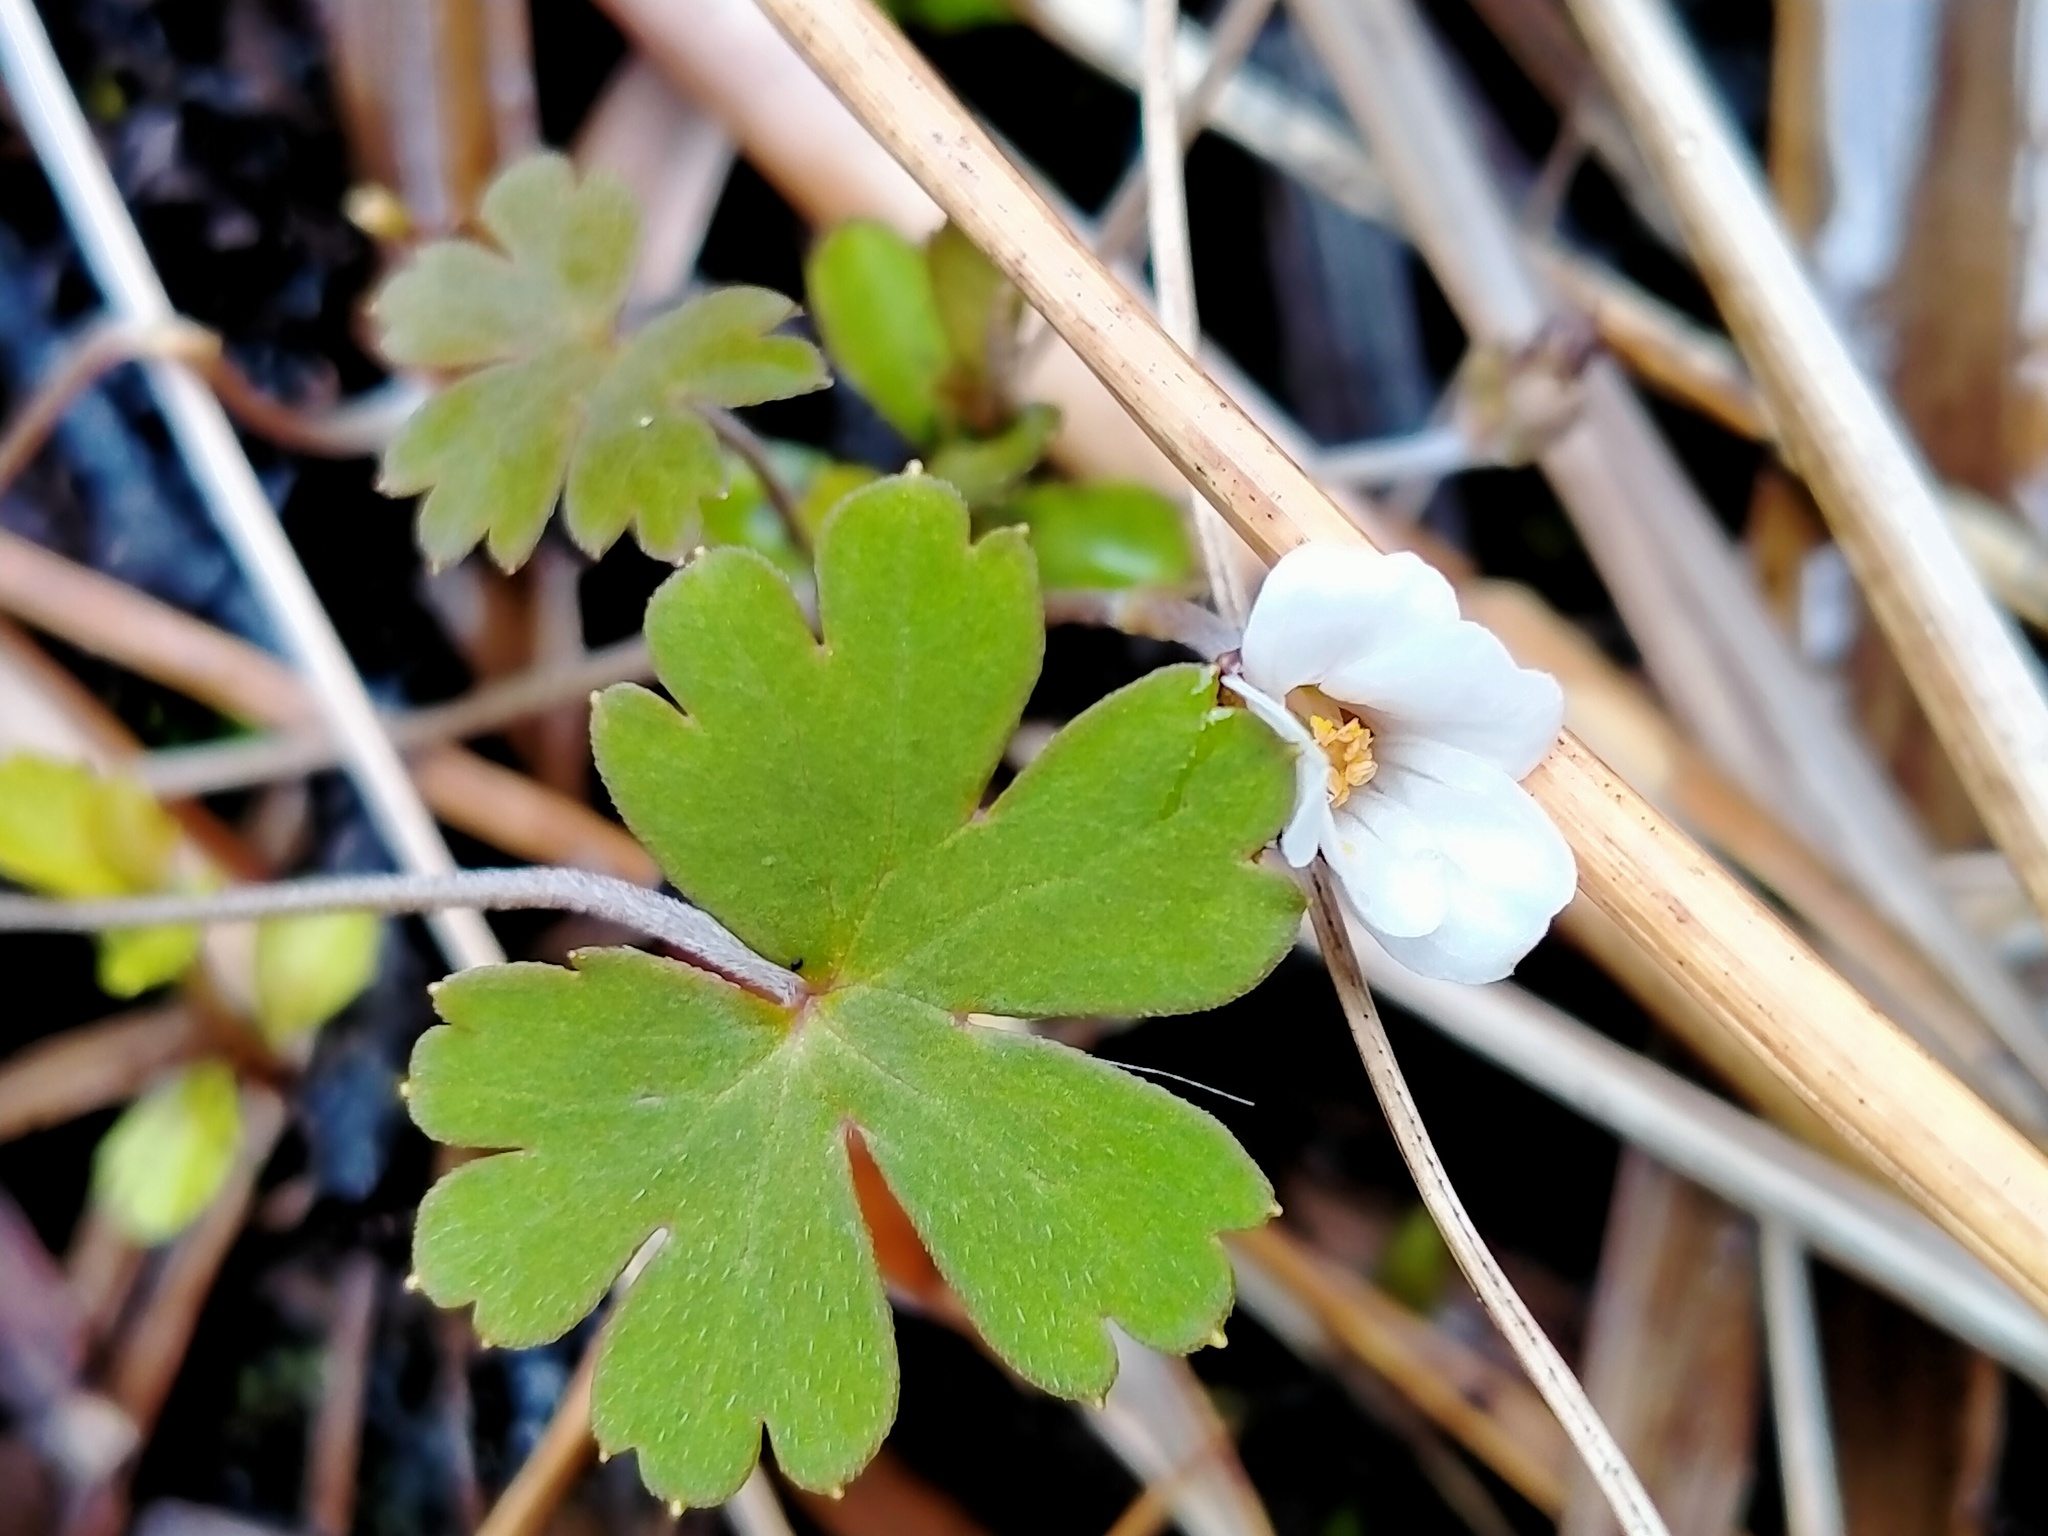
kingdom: Plantae
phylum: Tracheophyta
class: Magnoliopsida
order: Geraniales
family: Geraniaceae
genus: Geranium
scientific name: Geranium
